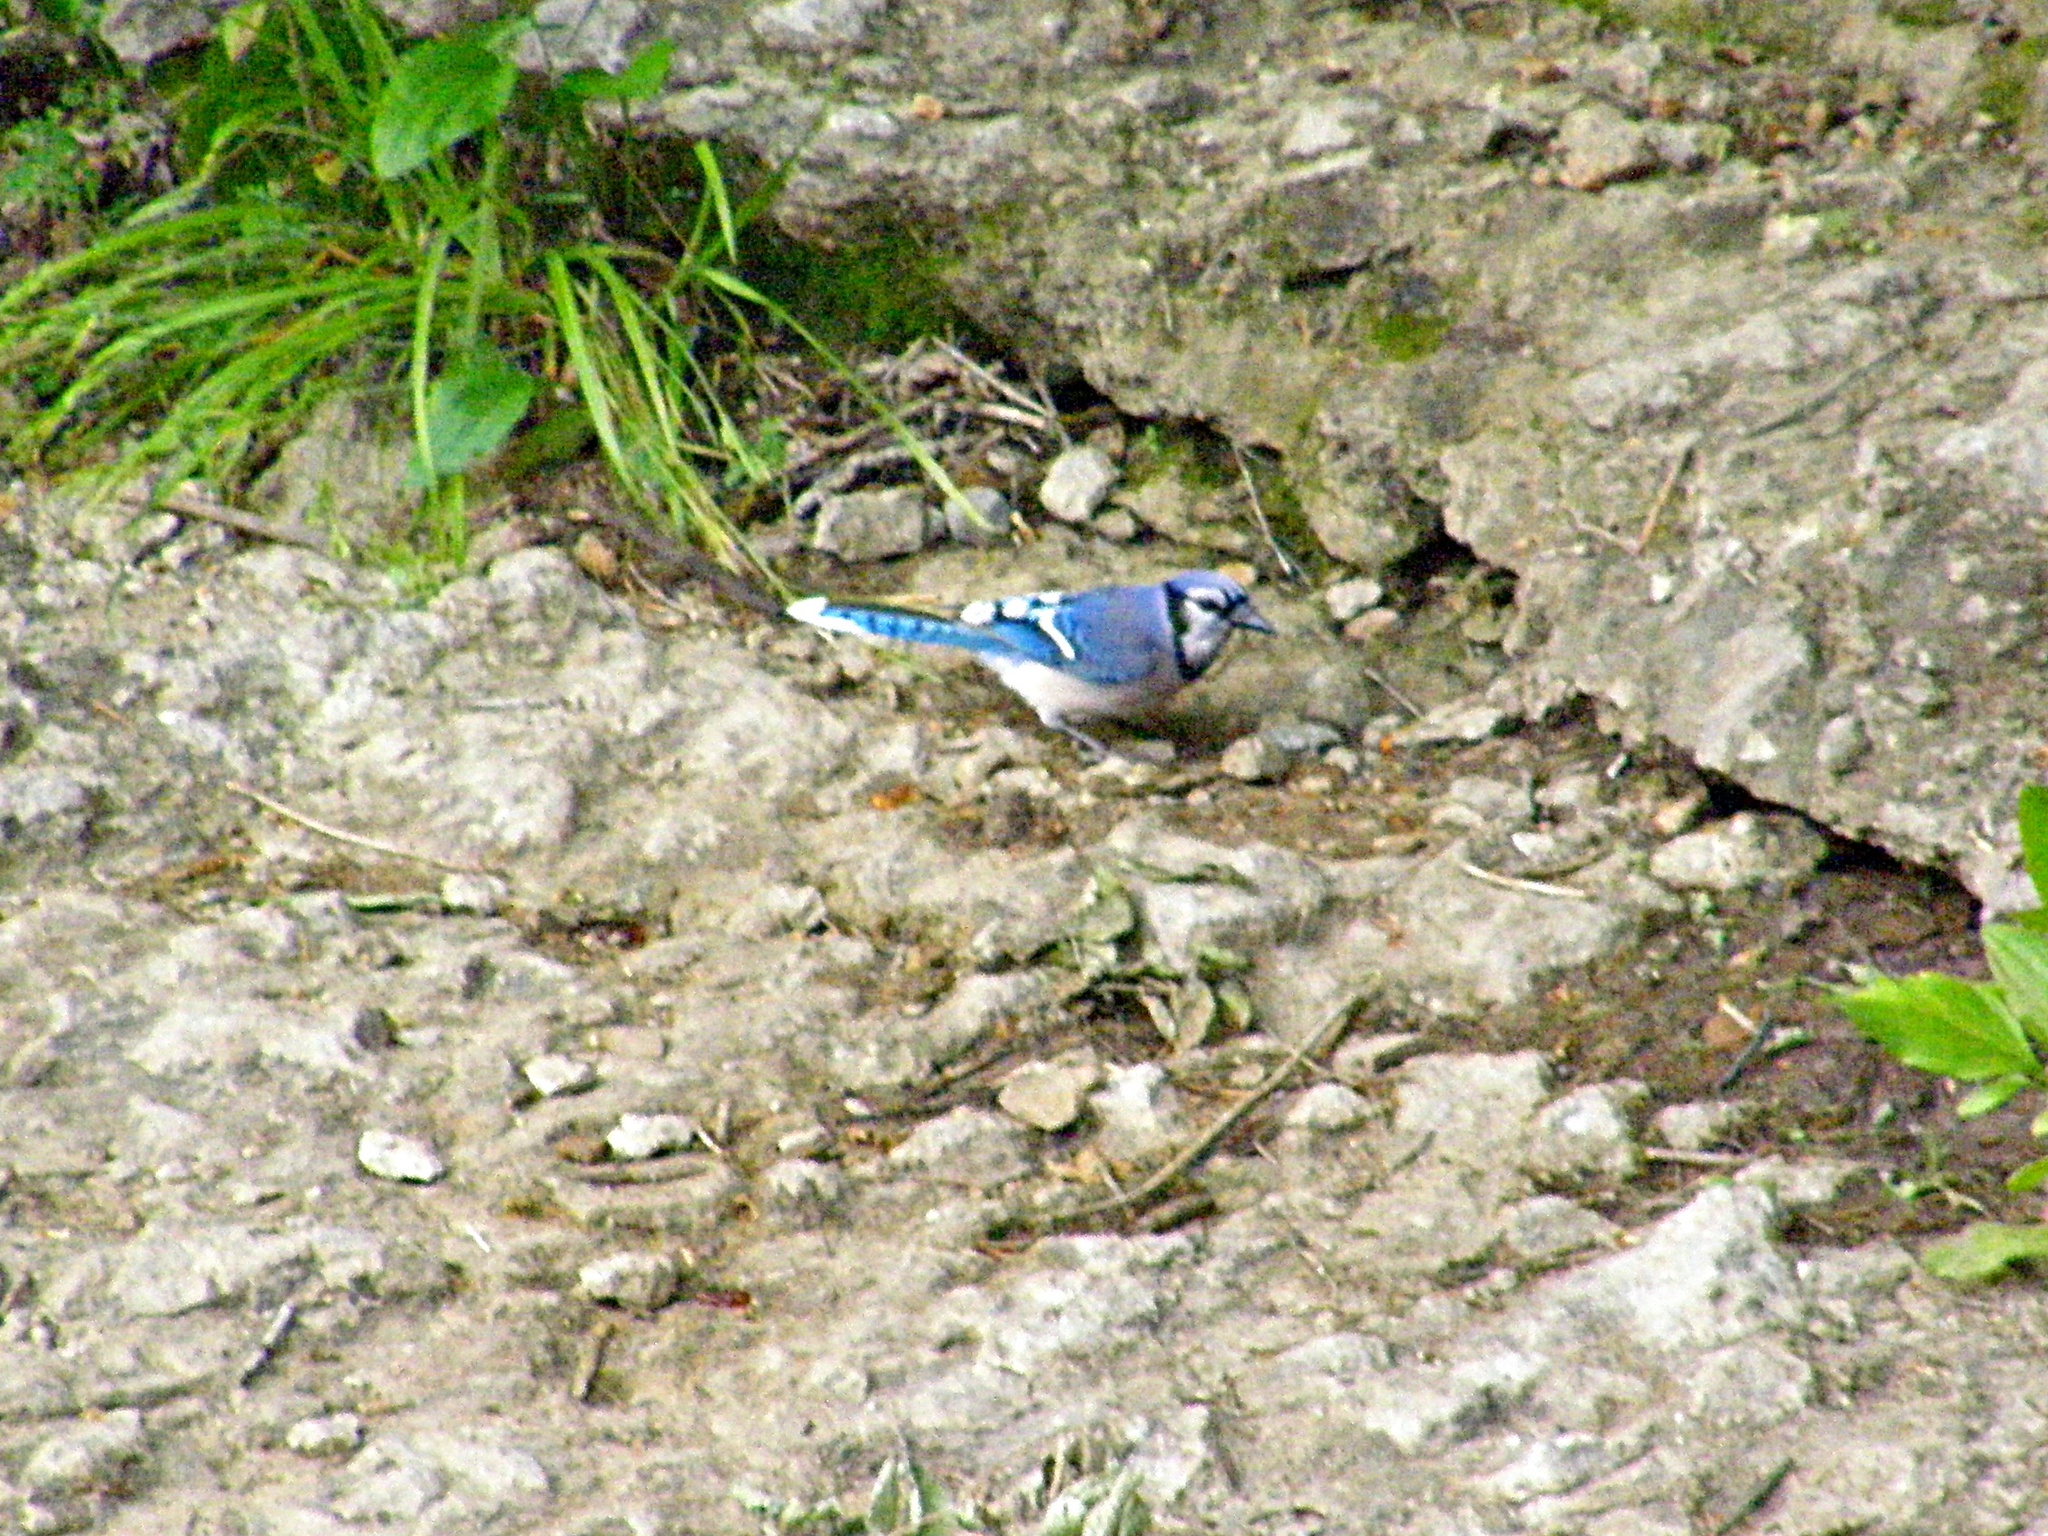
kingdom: Animalia
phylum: Chordata
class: Aves
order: Passeriformes
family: Corvidae
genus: Cyanocitta
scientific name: Cyanocitta cristata
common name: Blue jay
